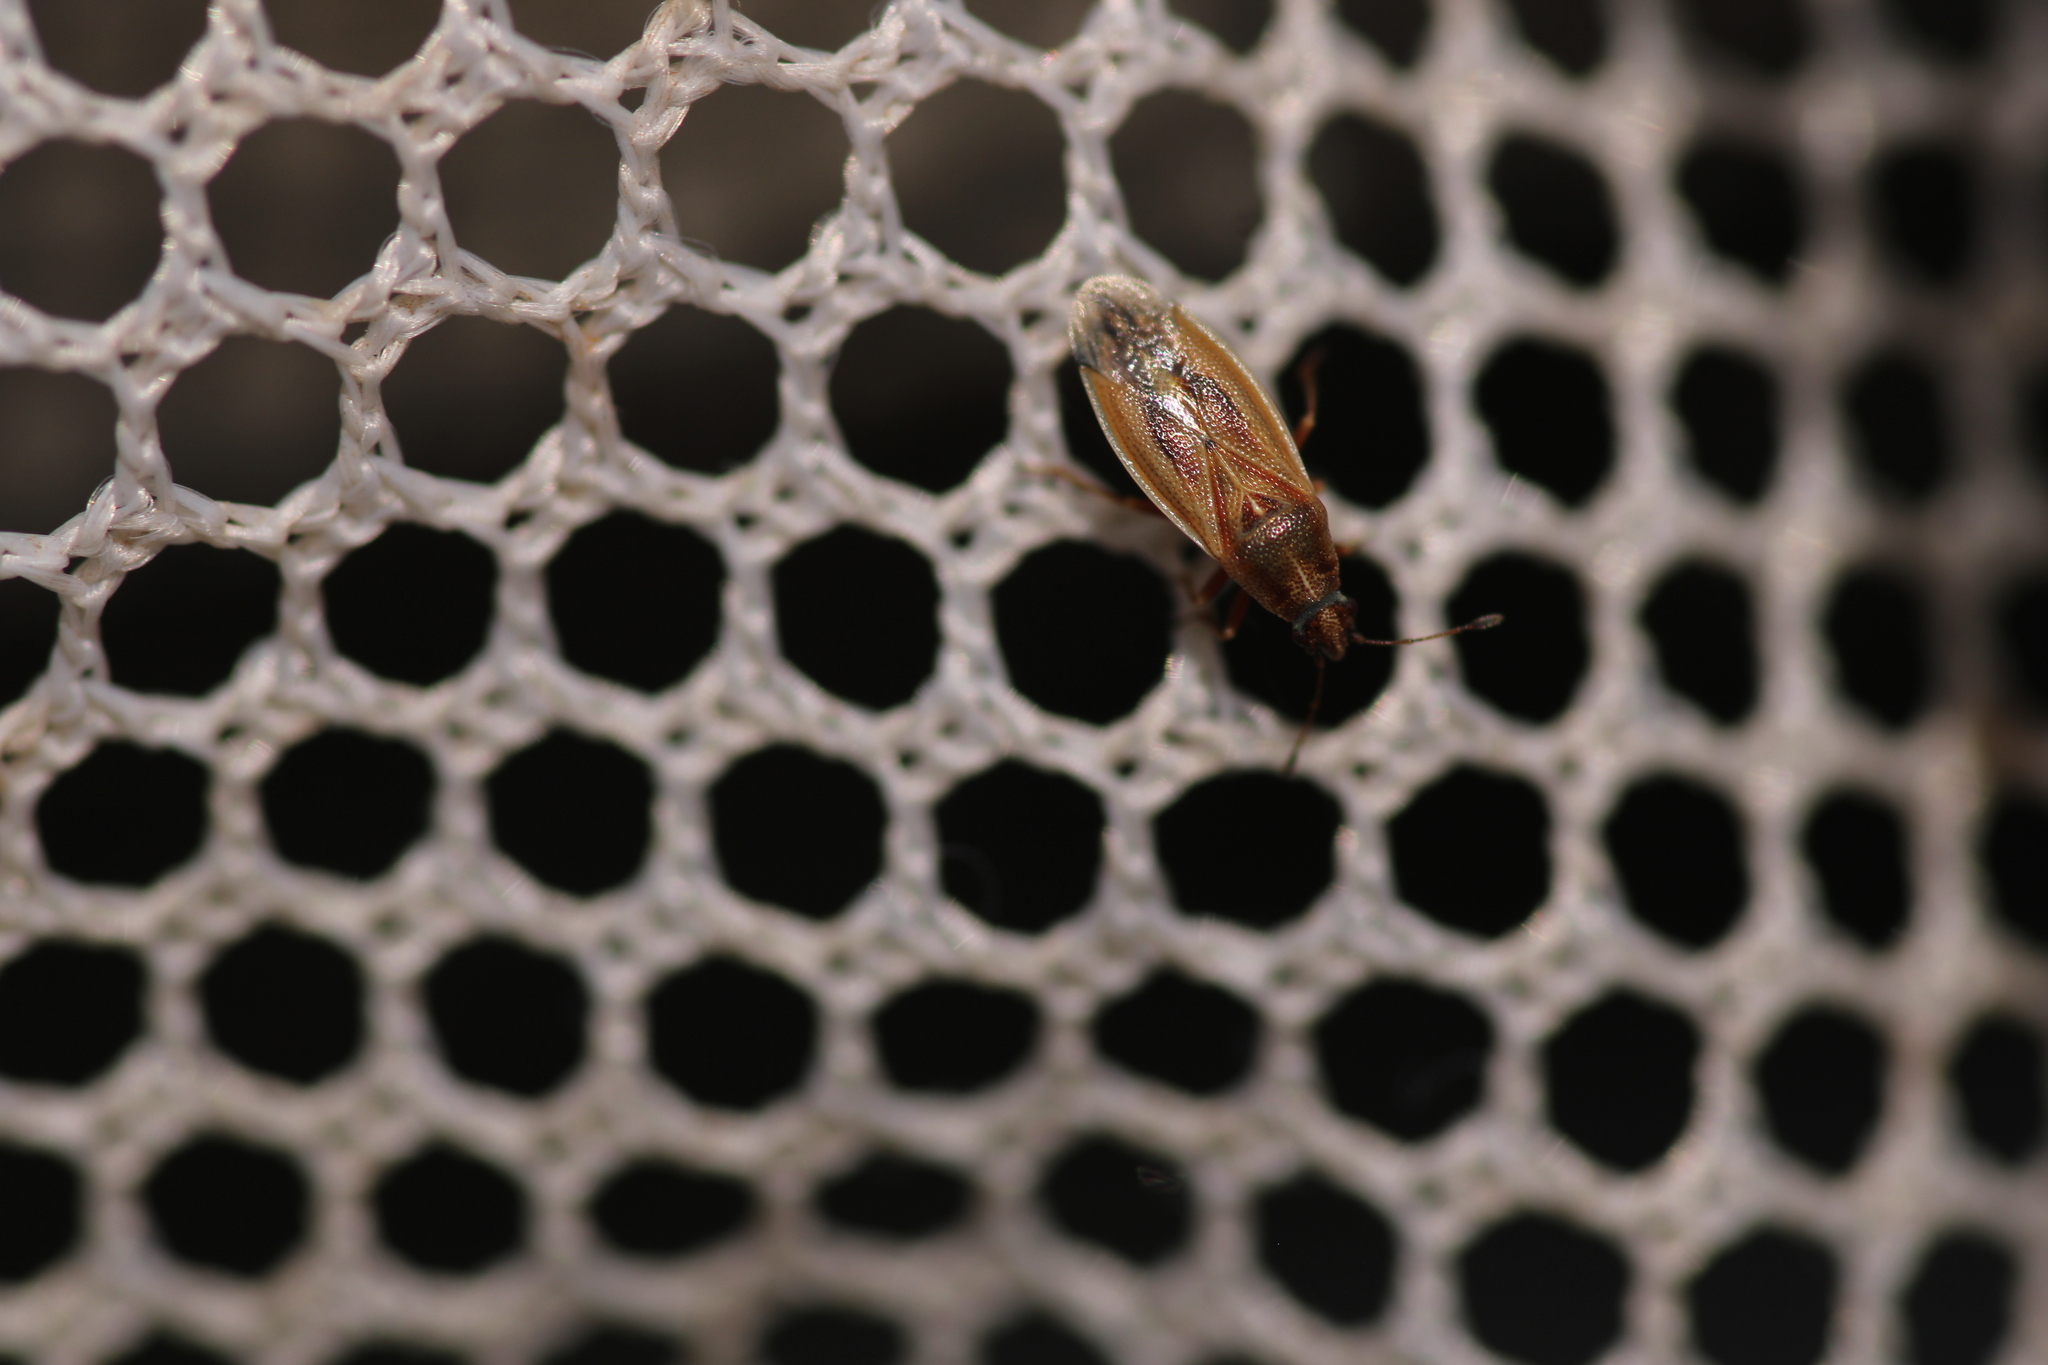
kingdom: Animalia
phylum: Arthropoda
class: Insecta
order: Hemiptera
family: Cymidae
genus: Cymus
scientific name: Cymus glandicolor
